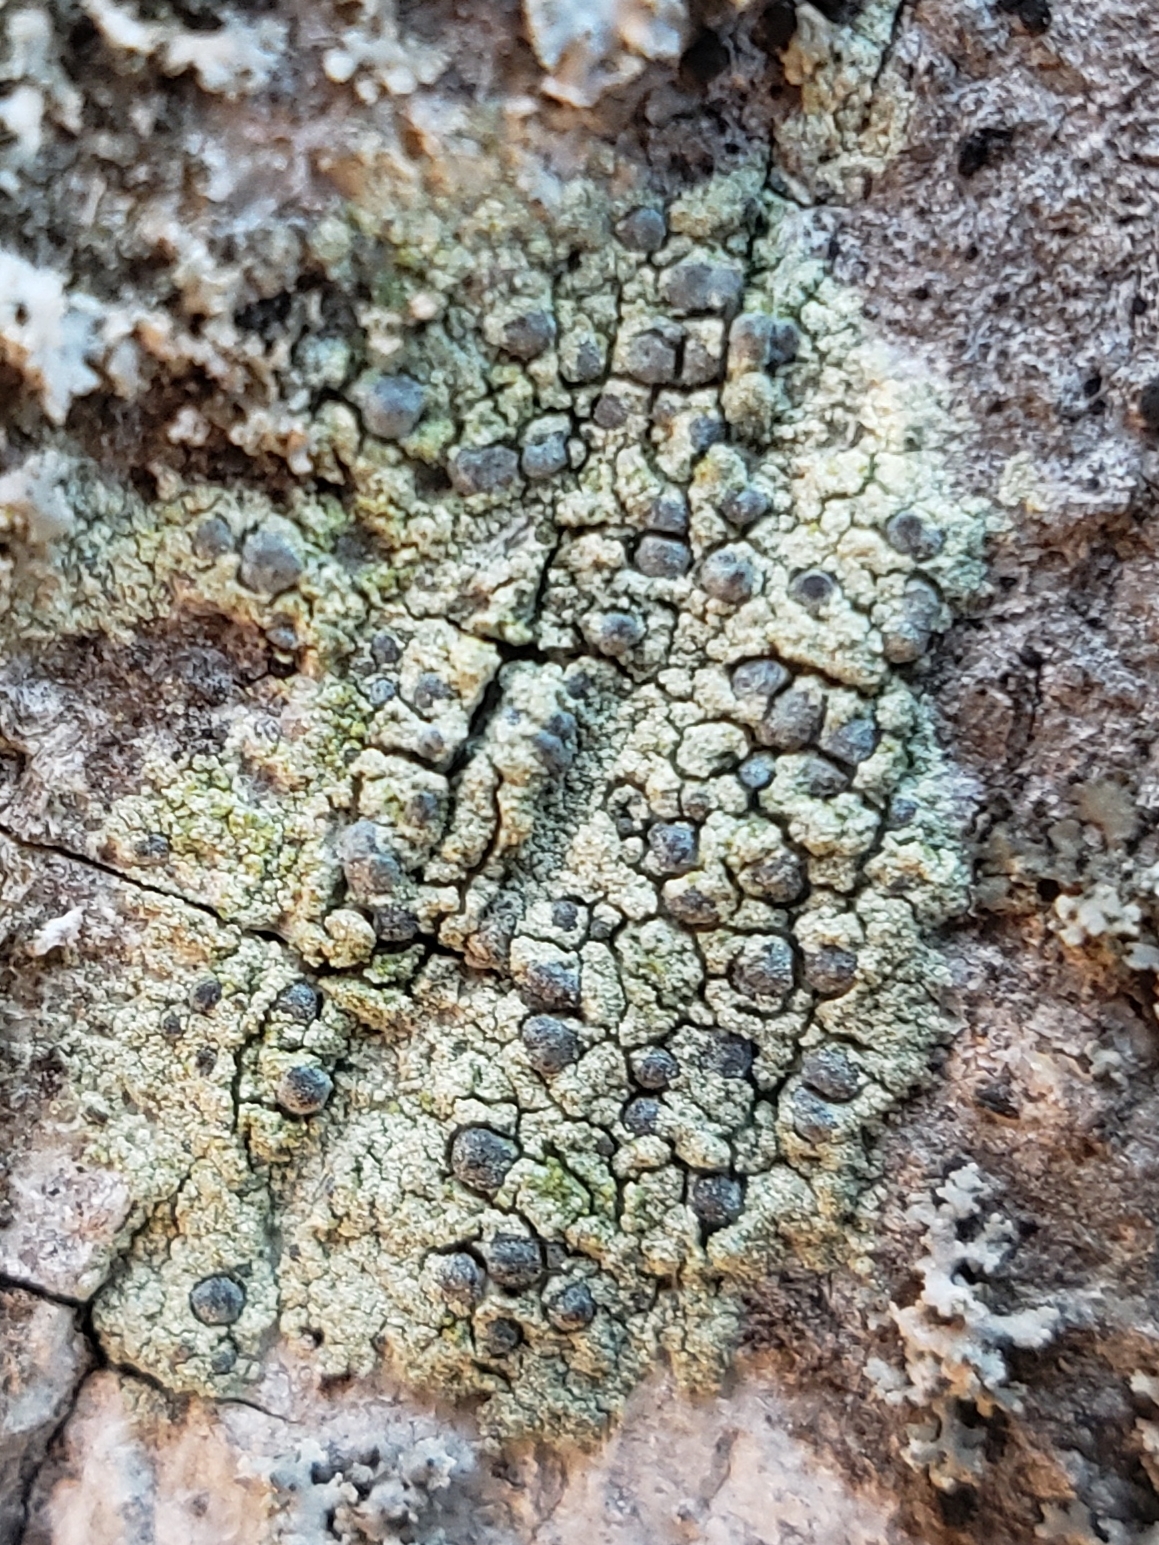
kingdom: Fungi
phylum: Ascomycota
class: Arthoniomycetes
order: Arthoniales
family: Chrysotrichaceae
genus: Chrysothrix
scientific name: Chrysothrix caesia
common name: Frosted comma lichen
